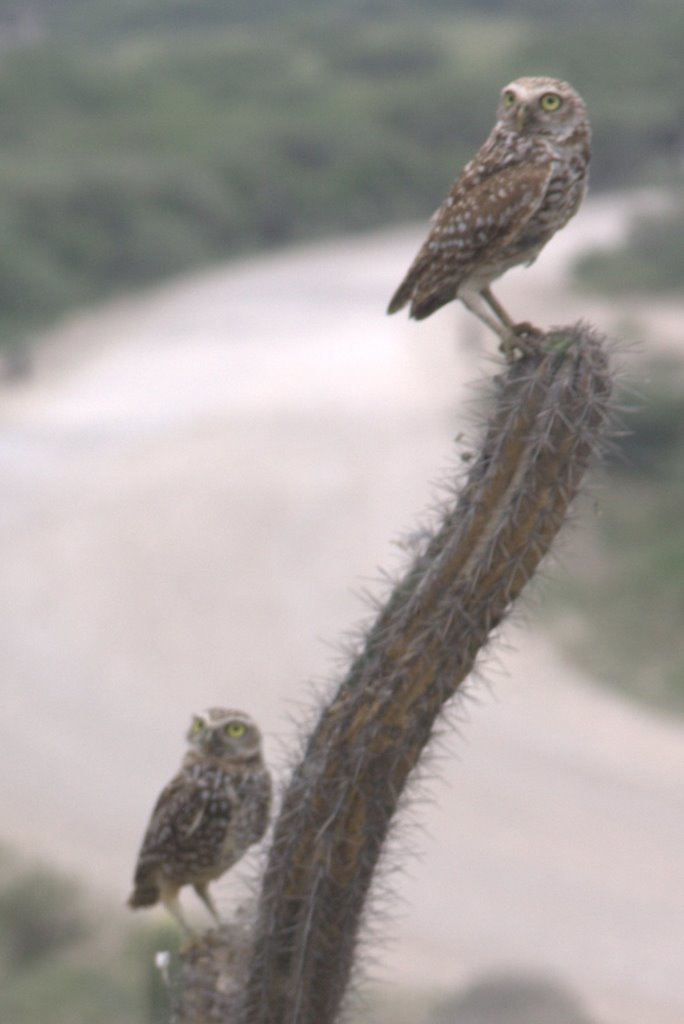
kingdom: Animalia
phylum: Chordata
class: Aves
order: Strigiformes
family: Strigidae
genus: Athene
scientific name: Athene cunicularia
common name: Burrowing owl
